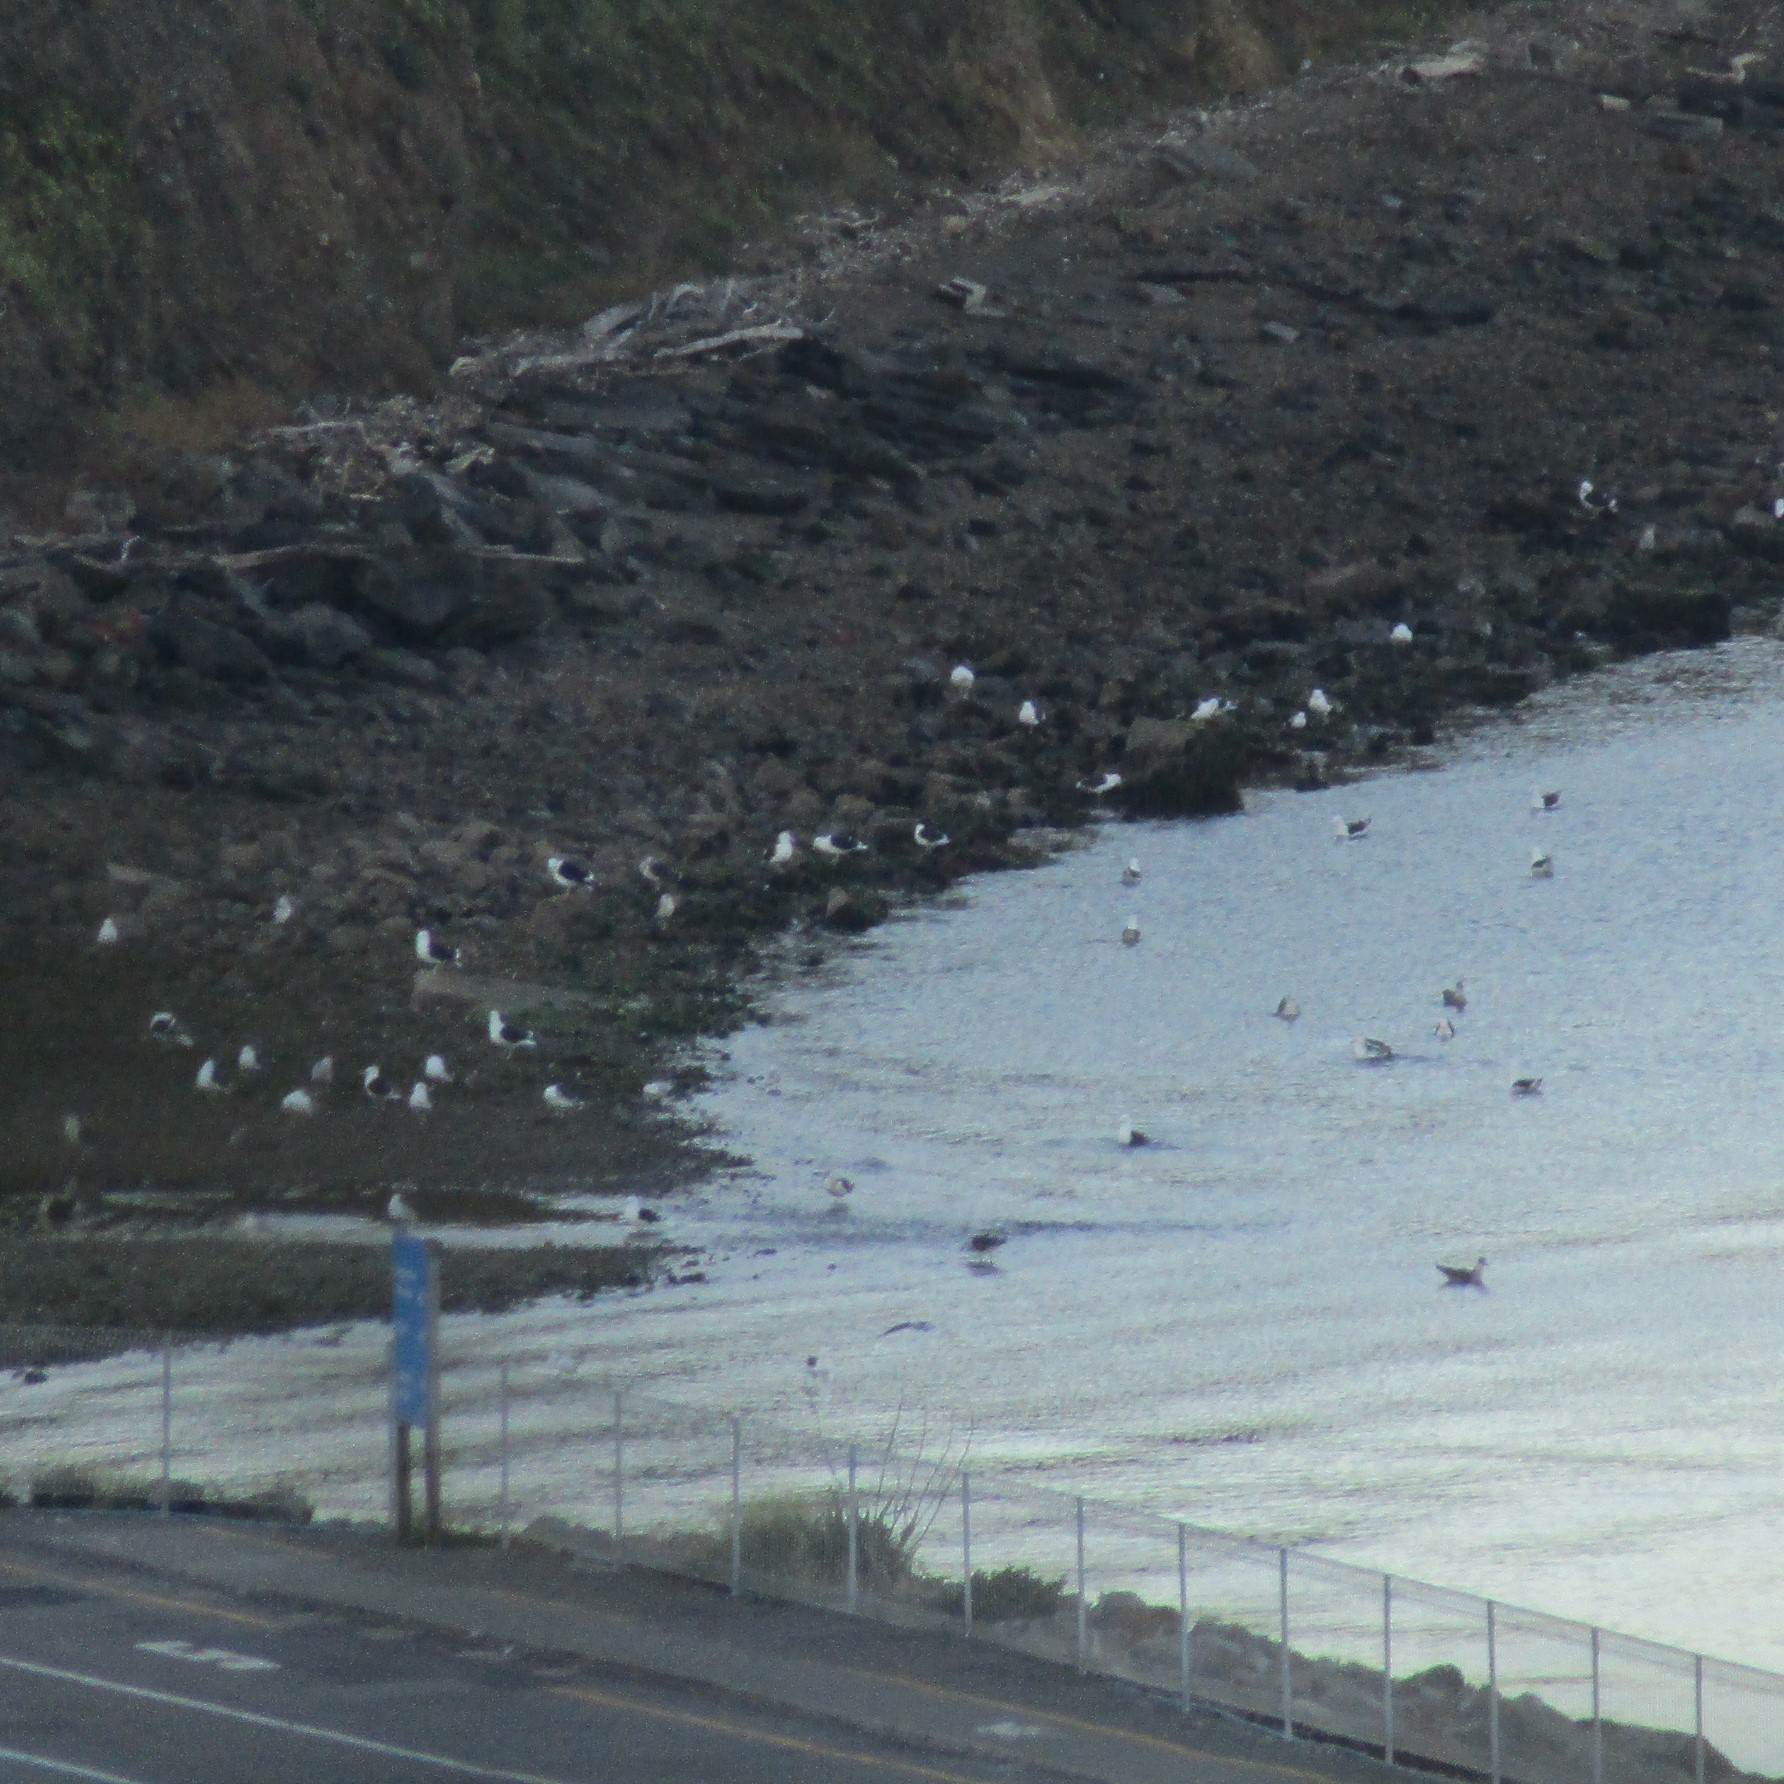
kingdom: Animalia
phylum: Chordata
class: Aves
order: Charadriiformes
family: Laridae
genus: Larus
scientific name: Larus dominicanus
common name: Kelp gull
